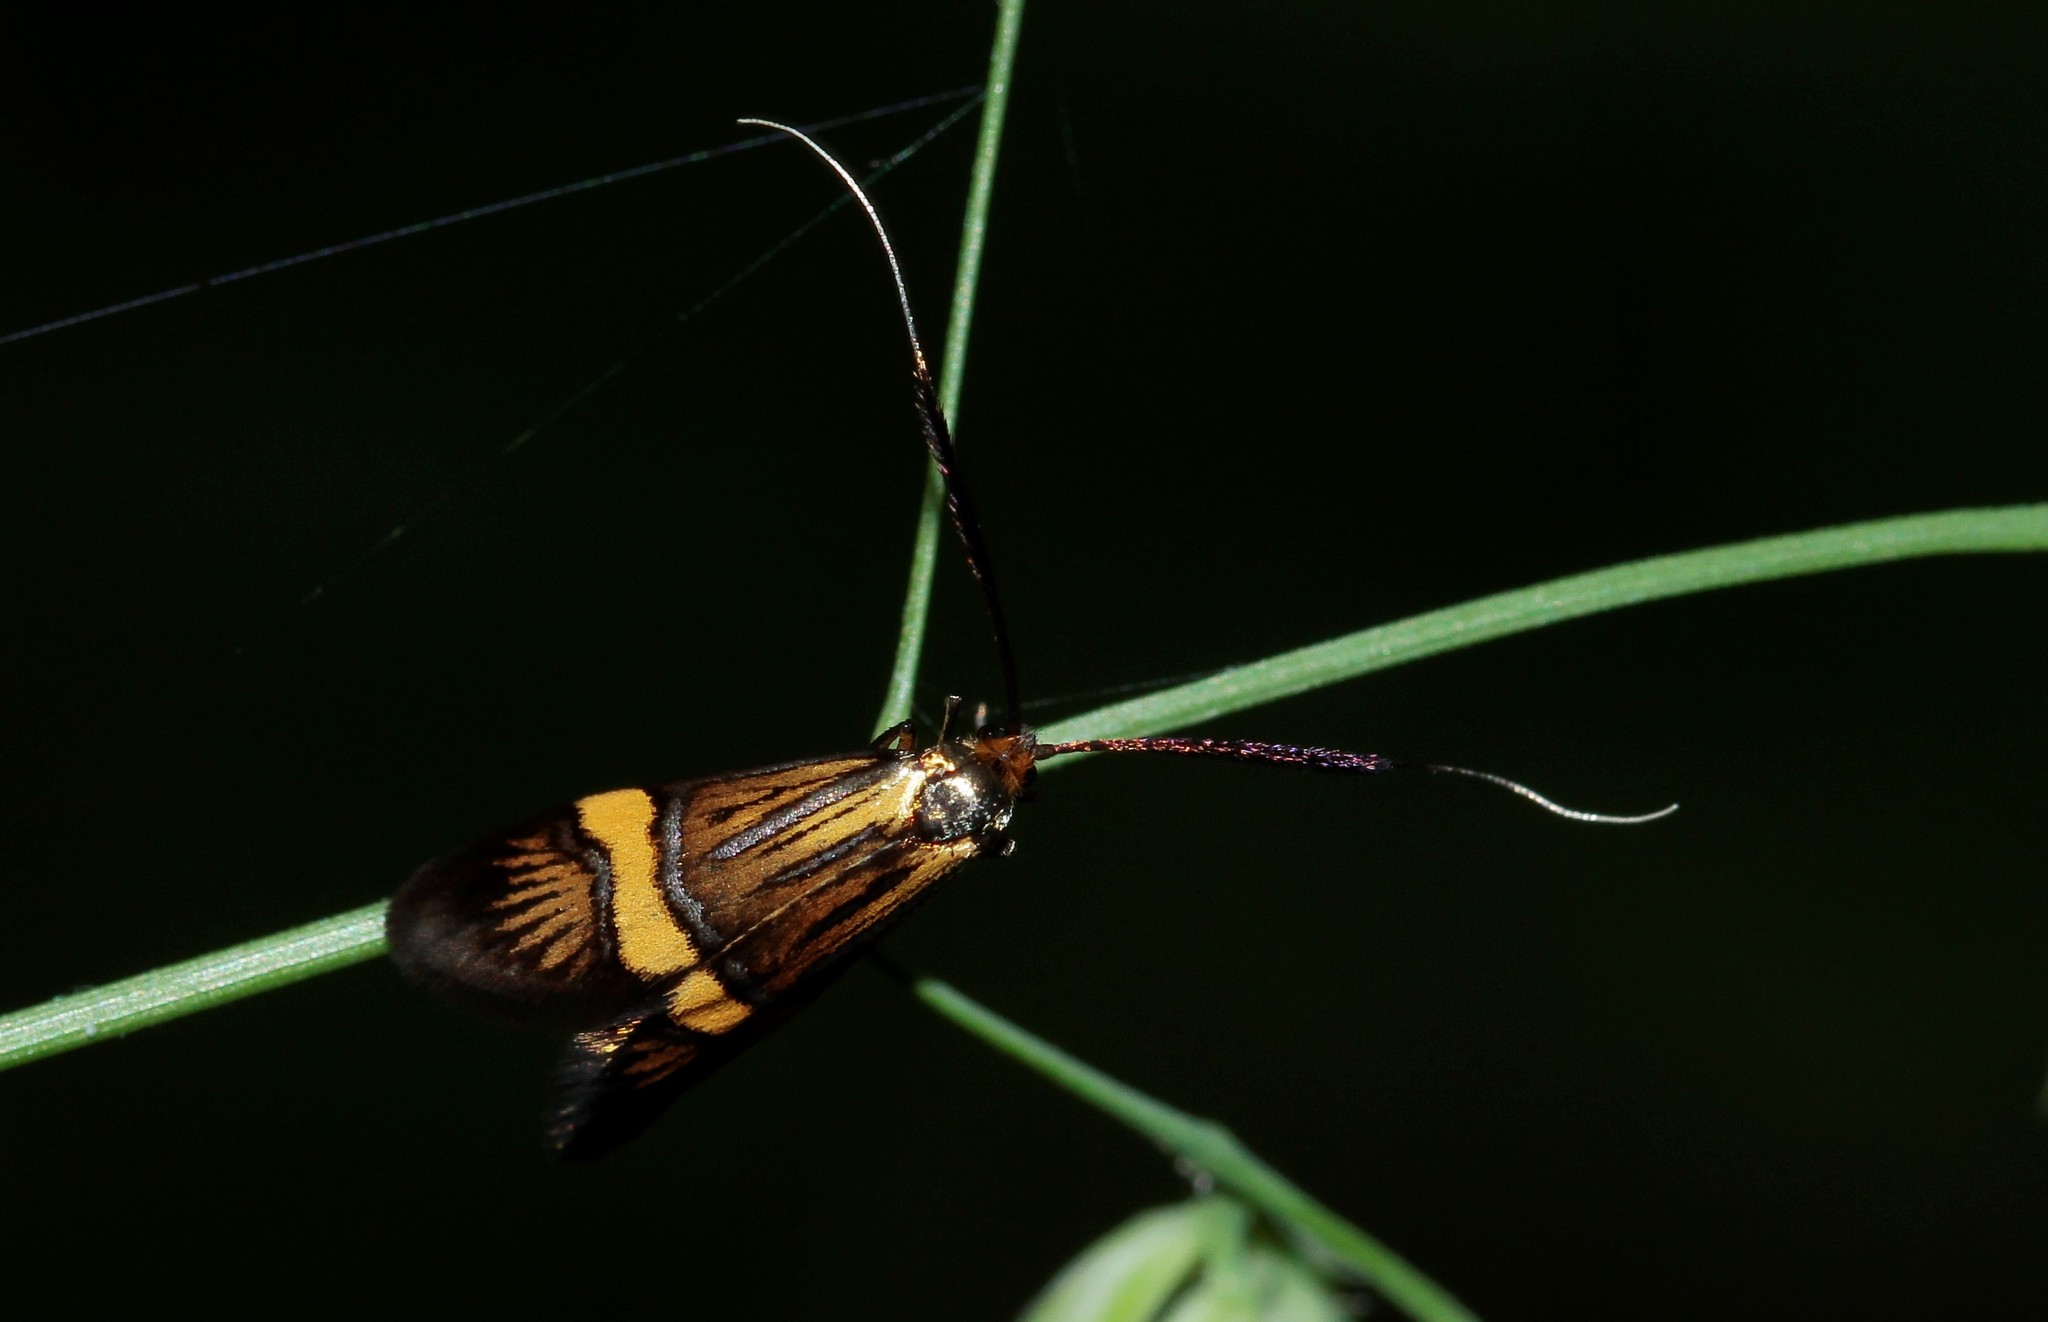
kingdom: Animalia
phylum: Arthropoda
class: Insecta
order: Lepidoptera
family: Adelidae
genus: Nemophora
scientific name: Nemophora degeerella
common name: Yellow-barred long-horn
